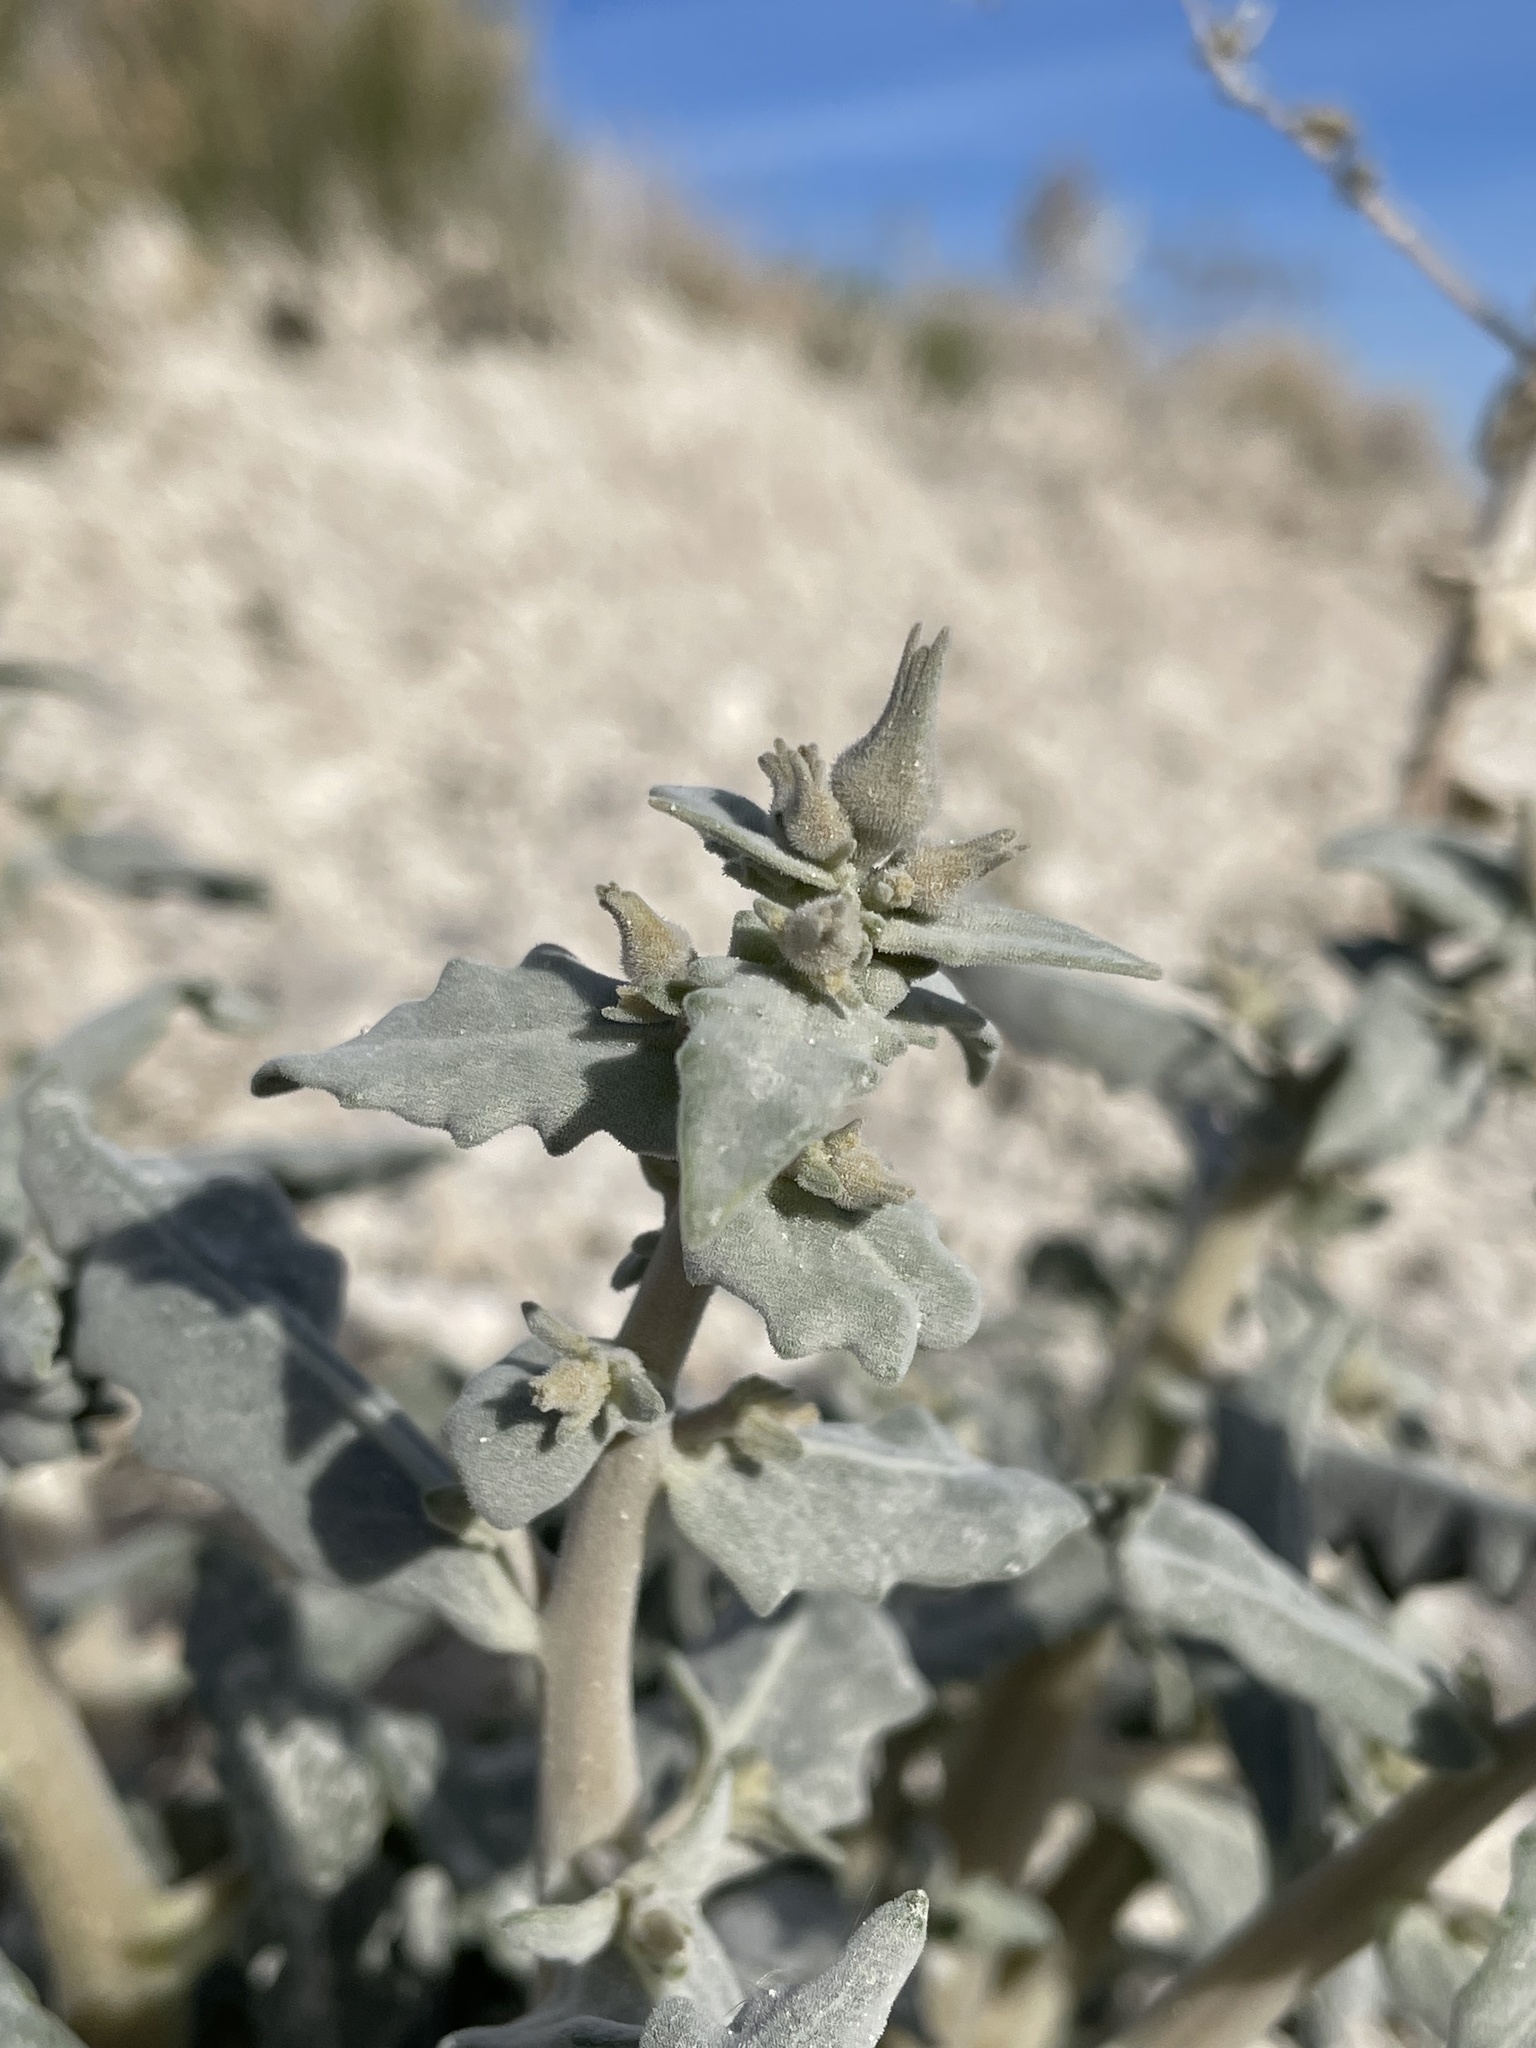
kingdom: Plantae
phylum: Tracheophyta
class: Magnoliopsida
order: Cornales
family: Loasaceae
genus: Mentzelia
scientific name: Mentzelia leucophylla
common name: Ash meadows blazingstar
